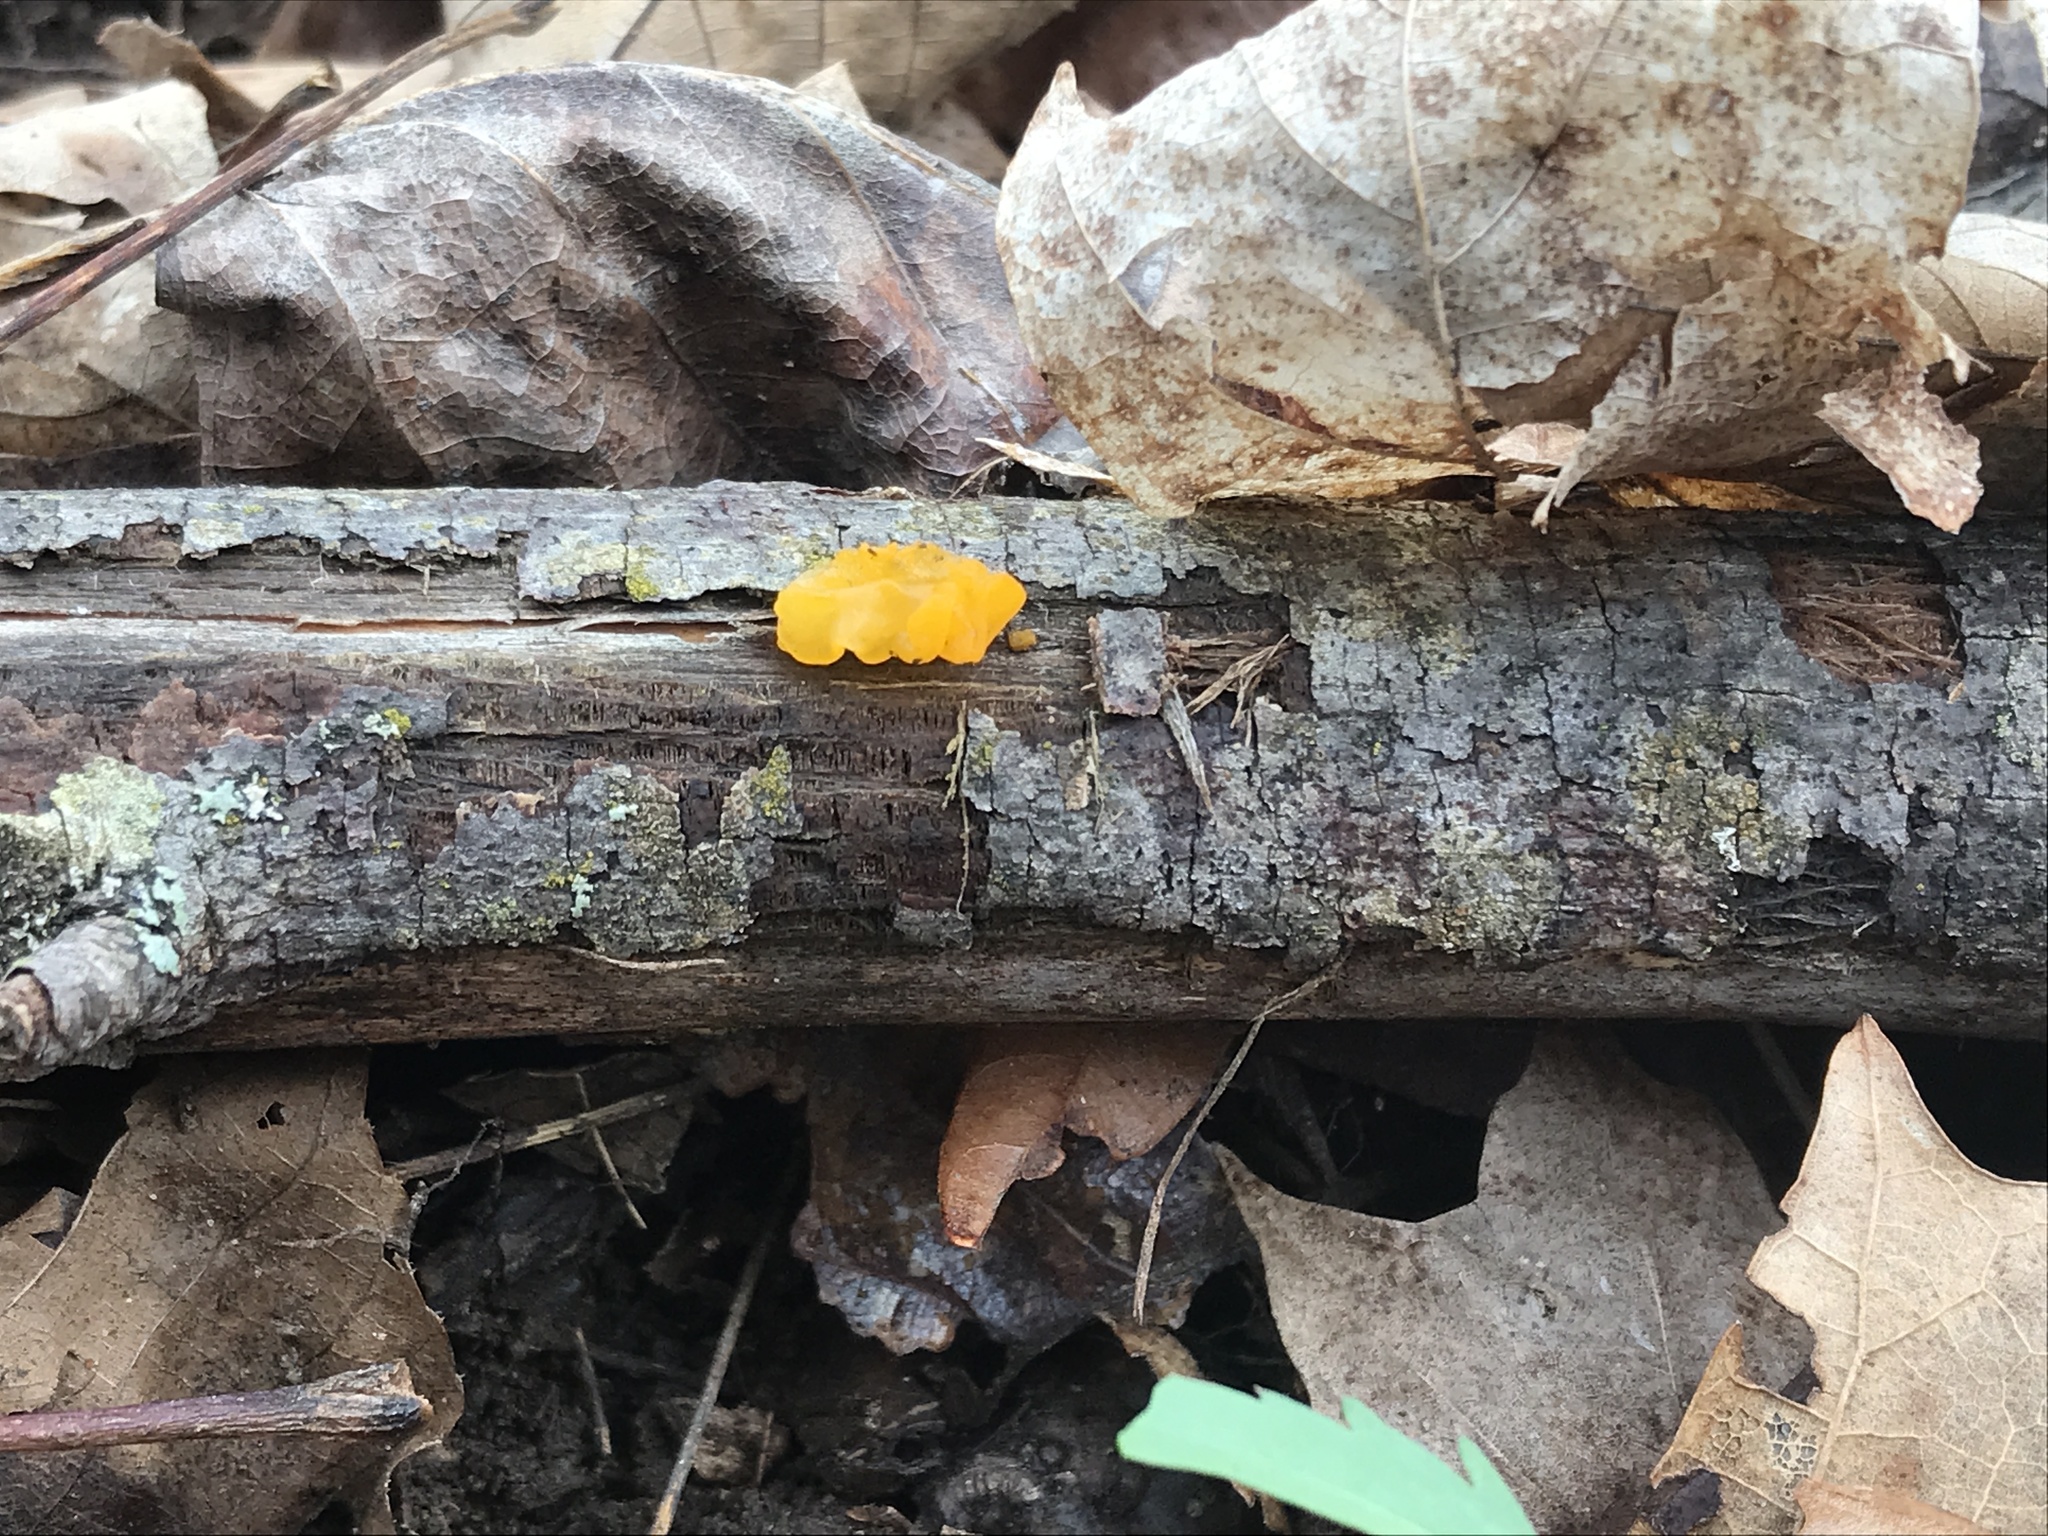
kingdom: Fungi
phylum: Basidiomycota
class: Dacrymycetes
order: Dacrymycetales
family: Dacrymycetaceae
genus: Dacrymyces
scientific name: Dacrymyces chrysospermus
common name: Orange jelly spot
